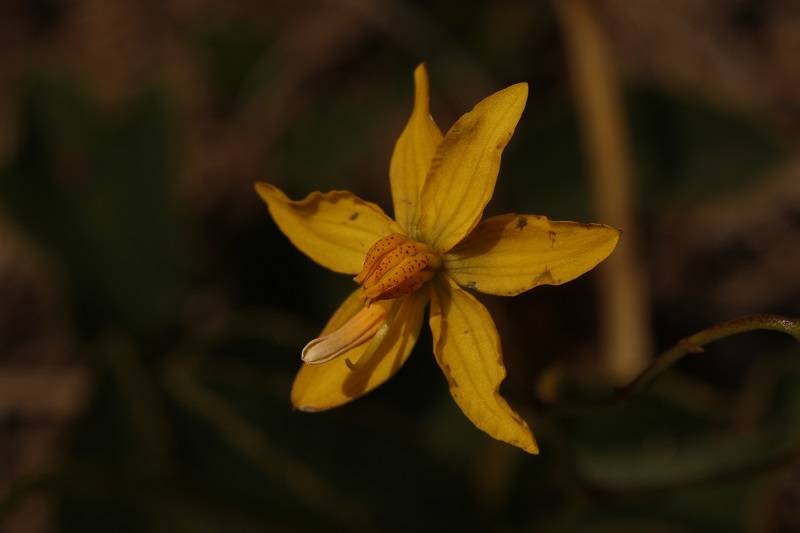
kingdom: Plantae
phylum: Tracheophyta
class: Liliopsida
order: Asparagales
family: Tecophilaeaceae
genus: Cyanella
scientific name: Cyanella lutea
